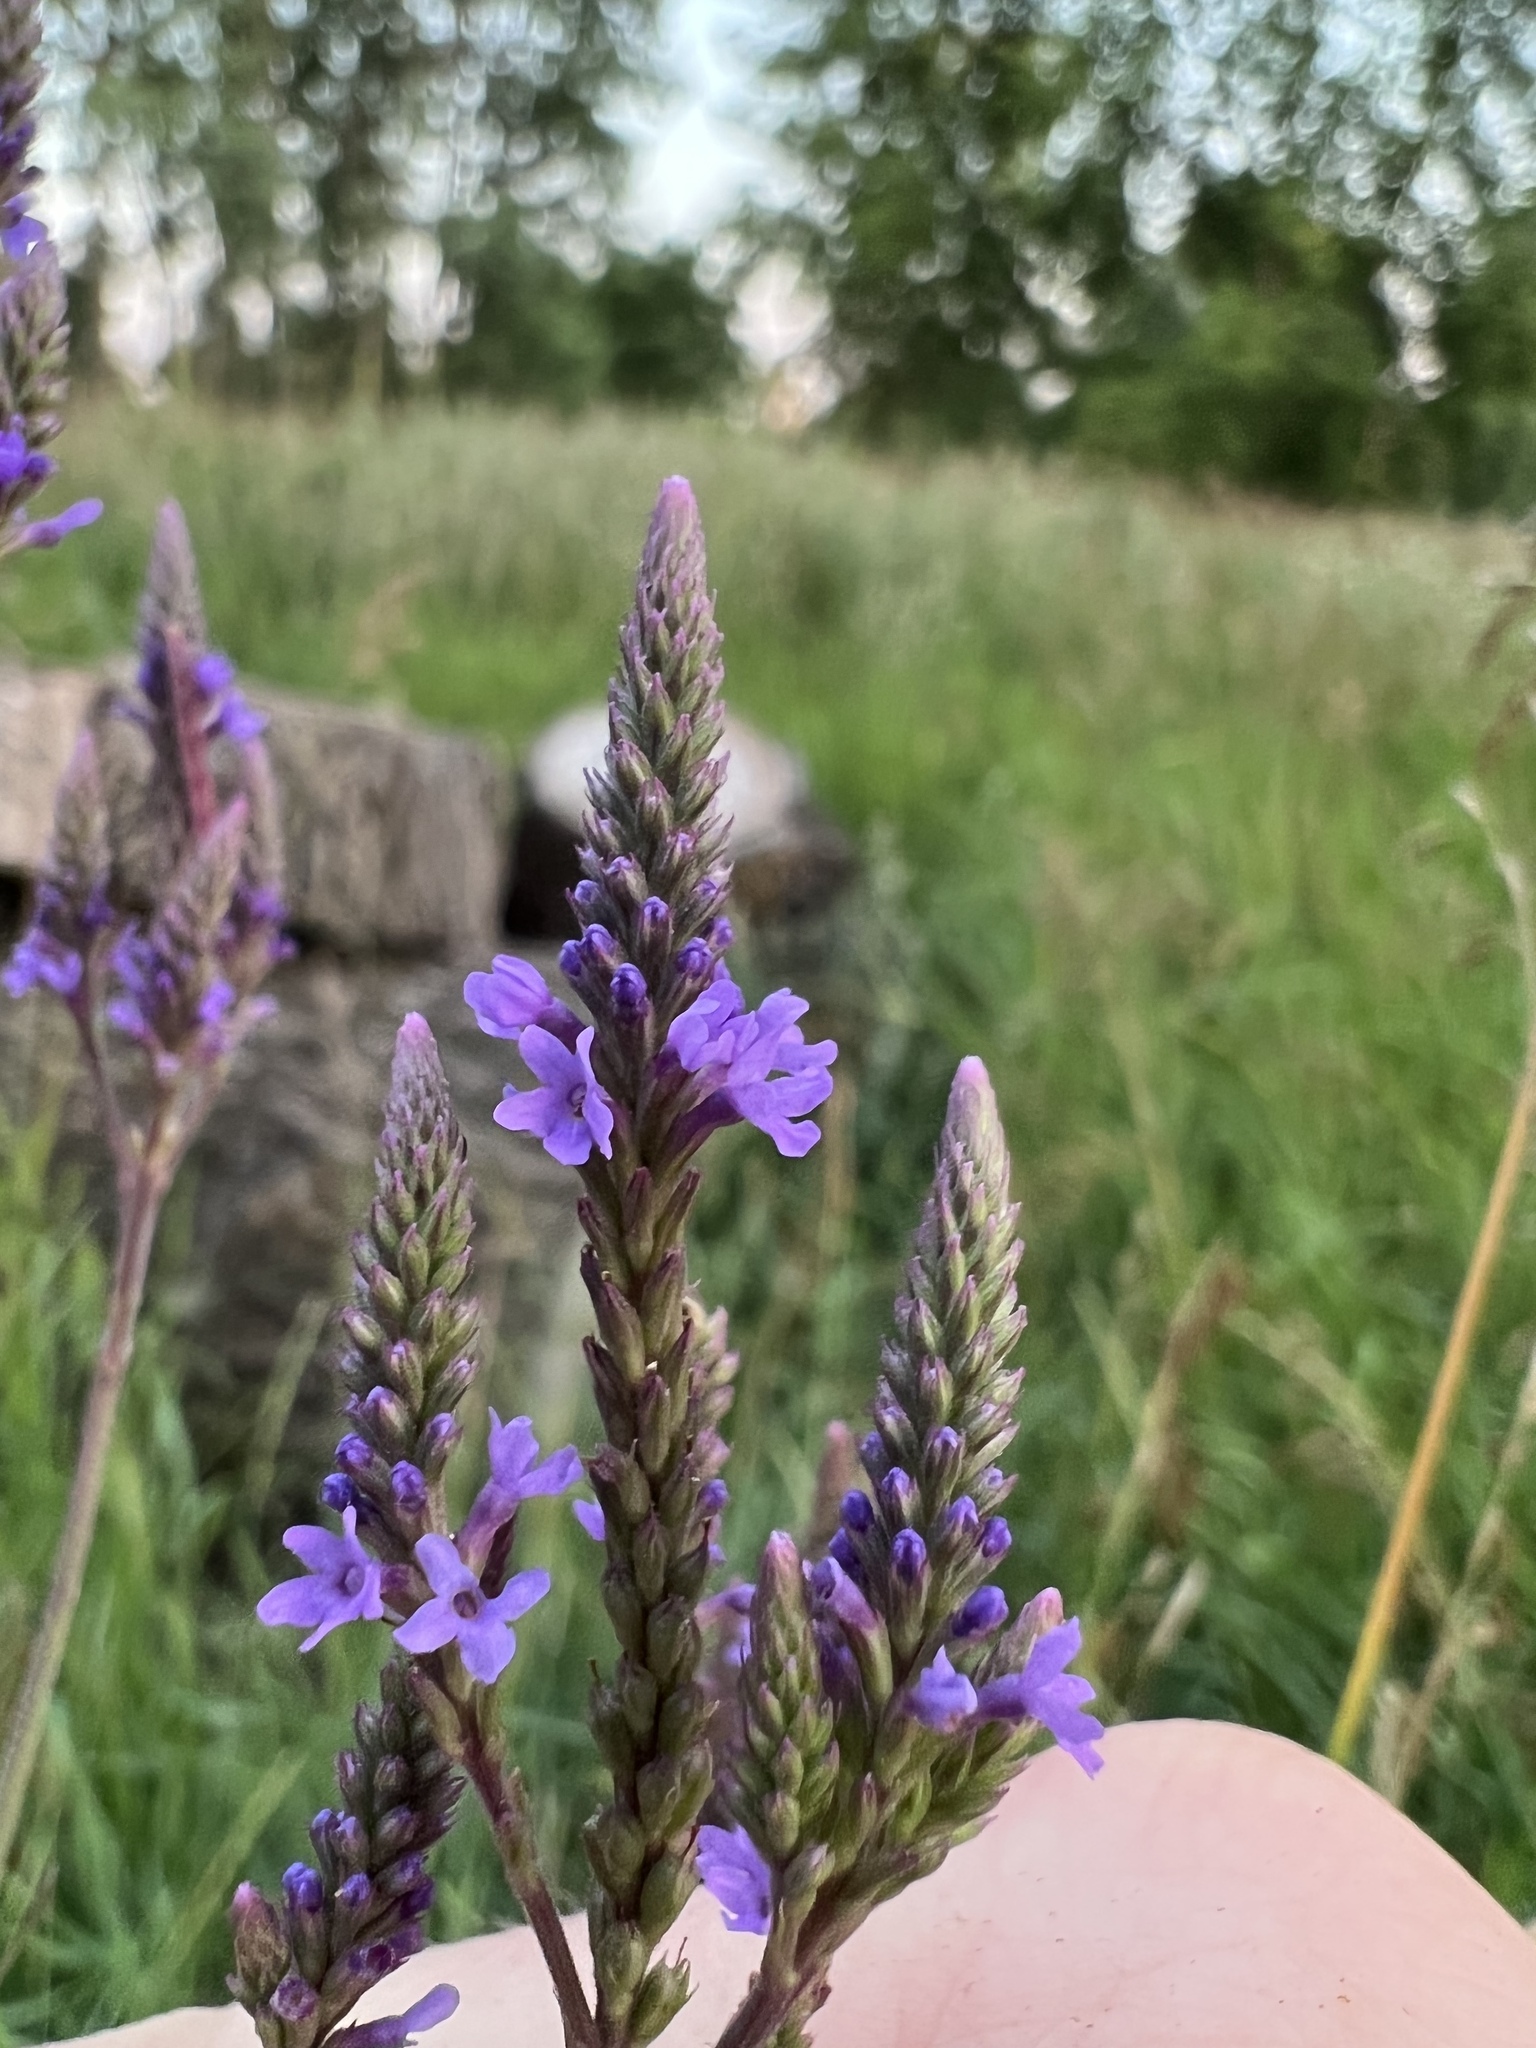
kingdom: Plantae
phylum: Tracheophyta
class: Magnoliopsida
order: Lamiales
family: Verbenaceae
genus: Verbena
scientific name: Verbena hastata
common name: American blue vervain
